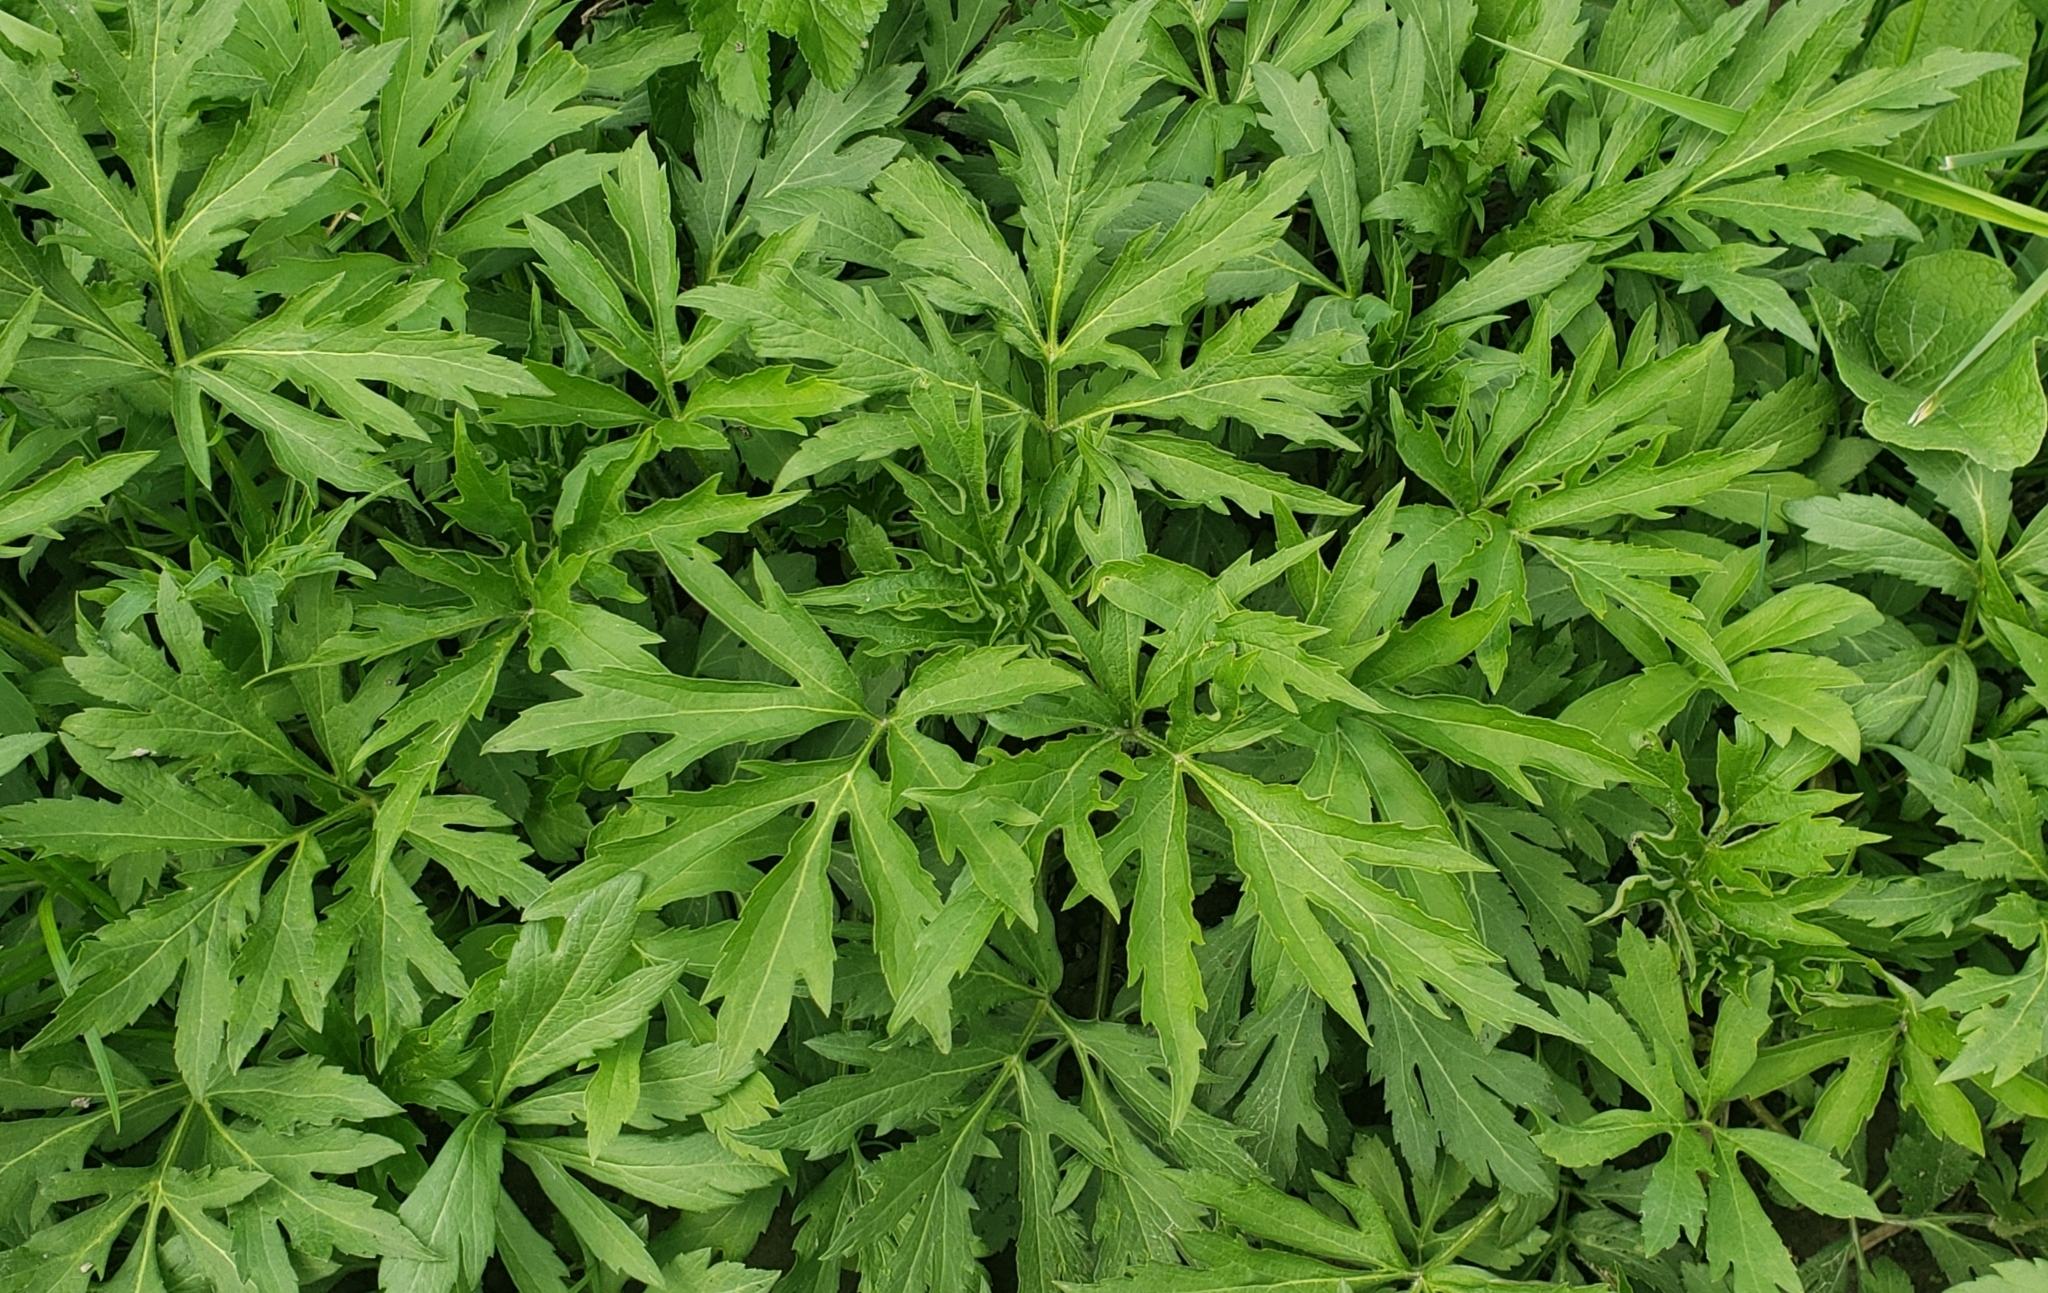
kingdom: Plantae
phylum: Tracheophyta
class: Magnoliopsida
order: Asterales
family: Asteraceae
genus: Rudbeckia
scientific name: Rudbeckia laciniata
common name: Coneflower
